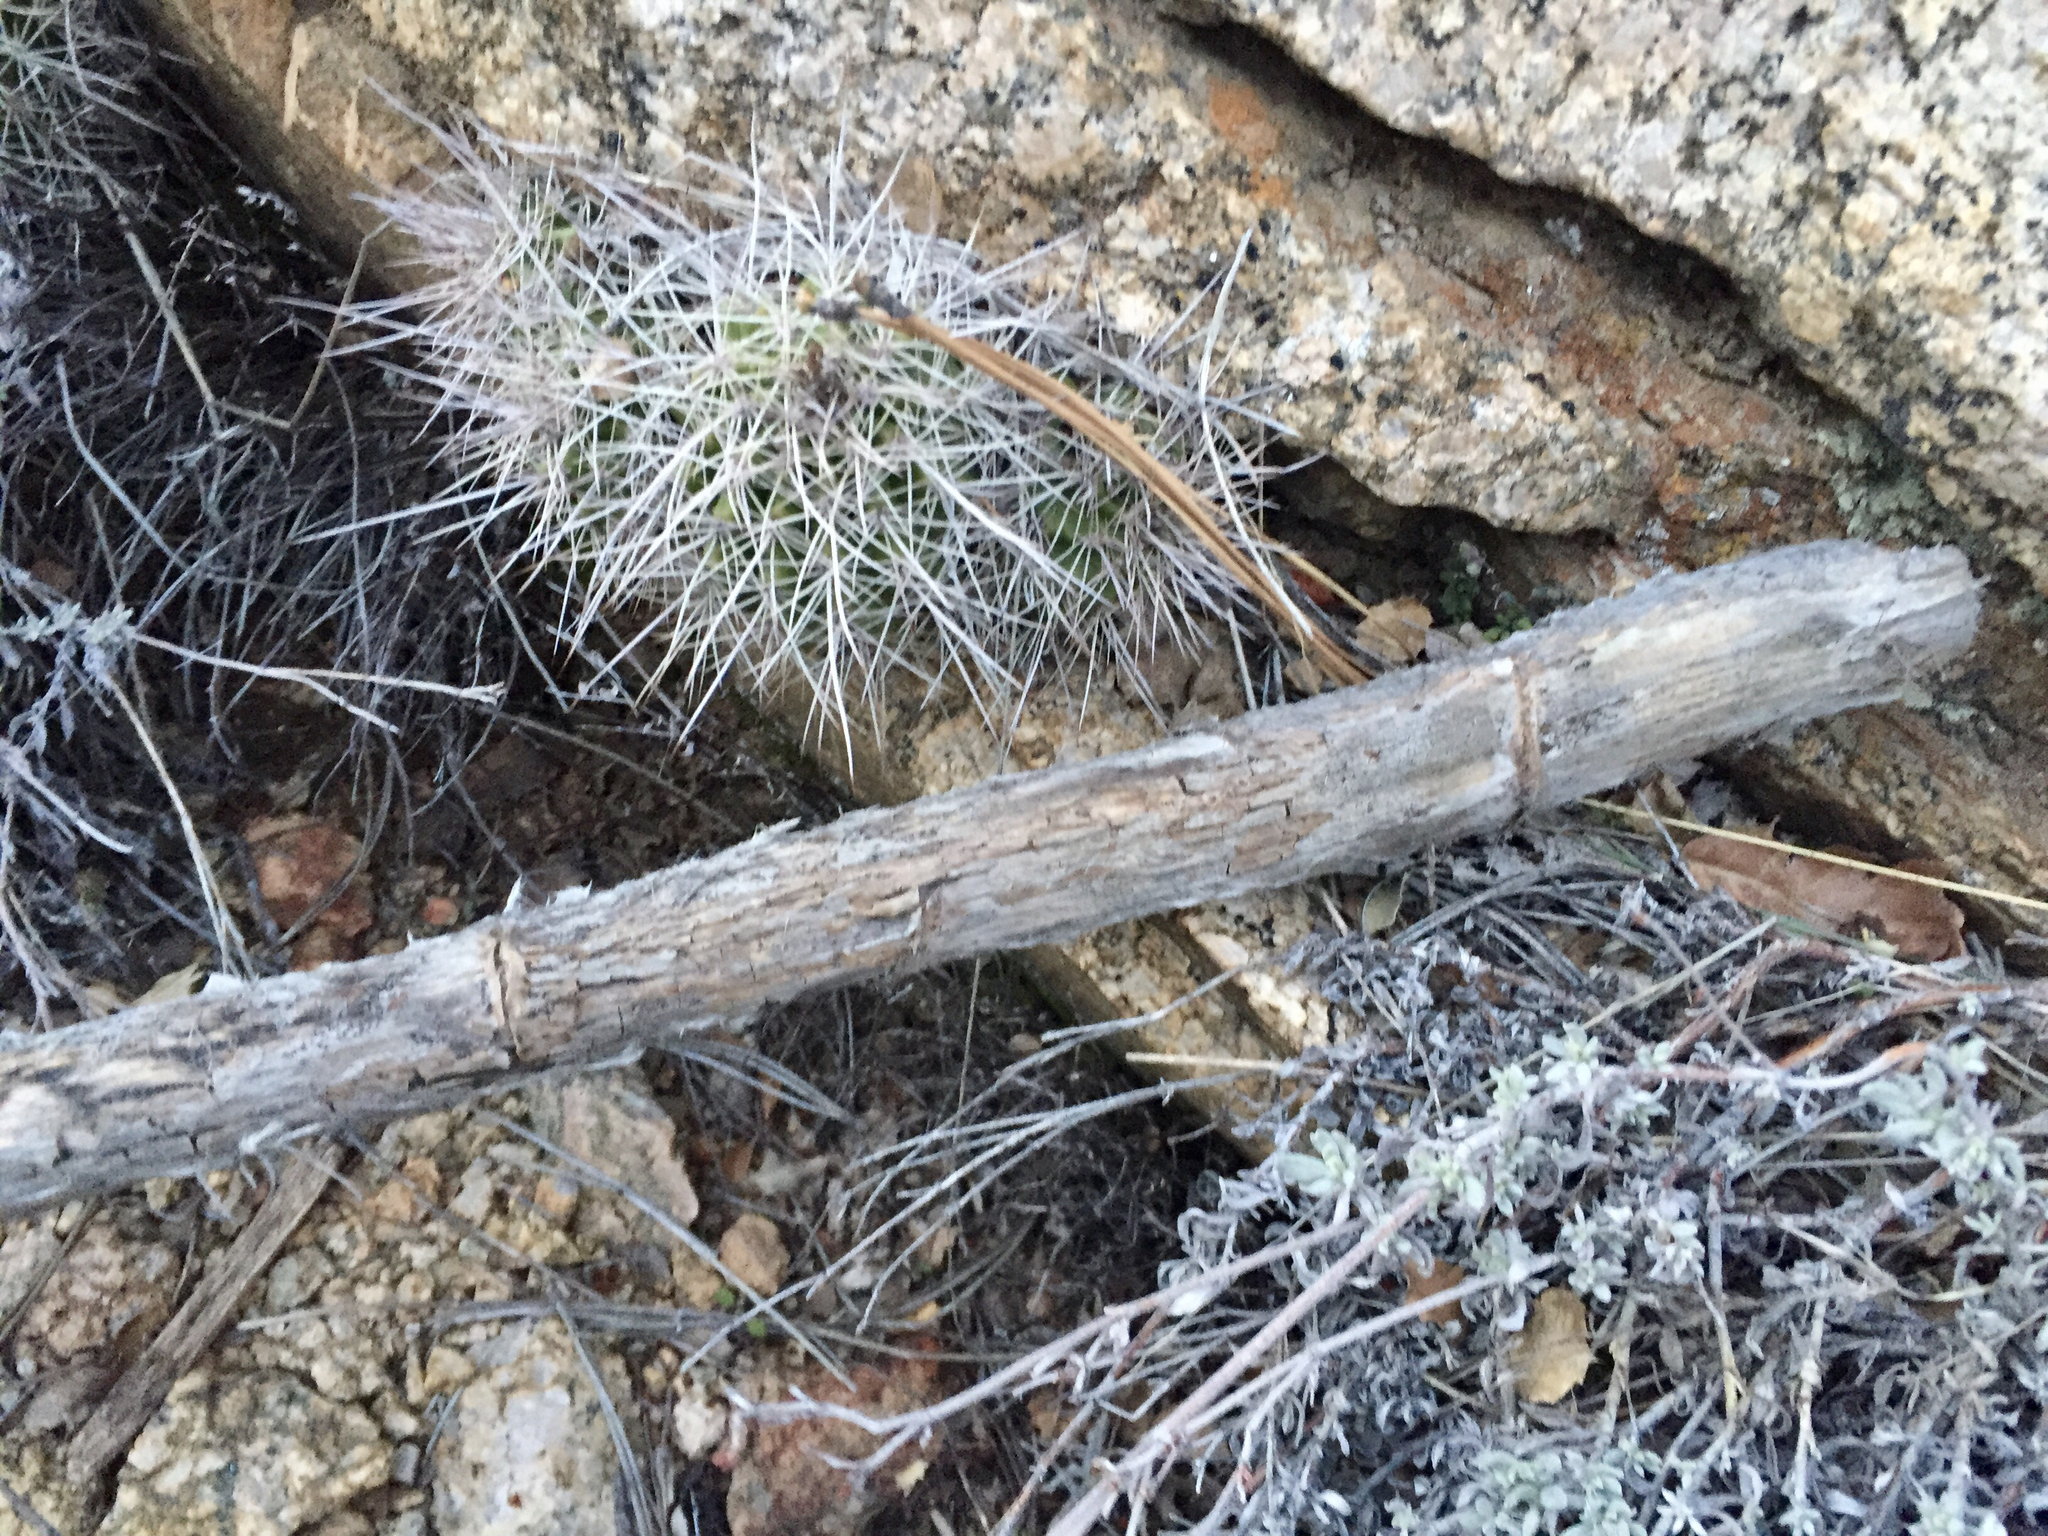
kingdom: Plantae
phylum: Tracheophyta
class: Magnoliopsida
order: Caryophyllales
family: Cactaceae
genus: Echinocereus
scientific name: Echinocereus bakeri
